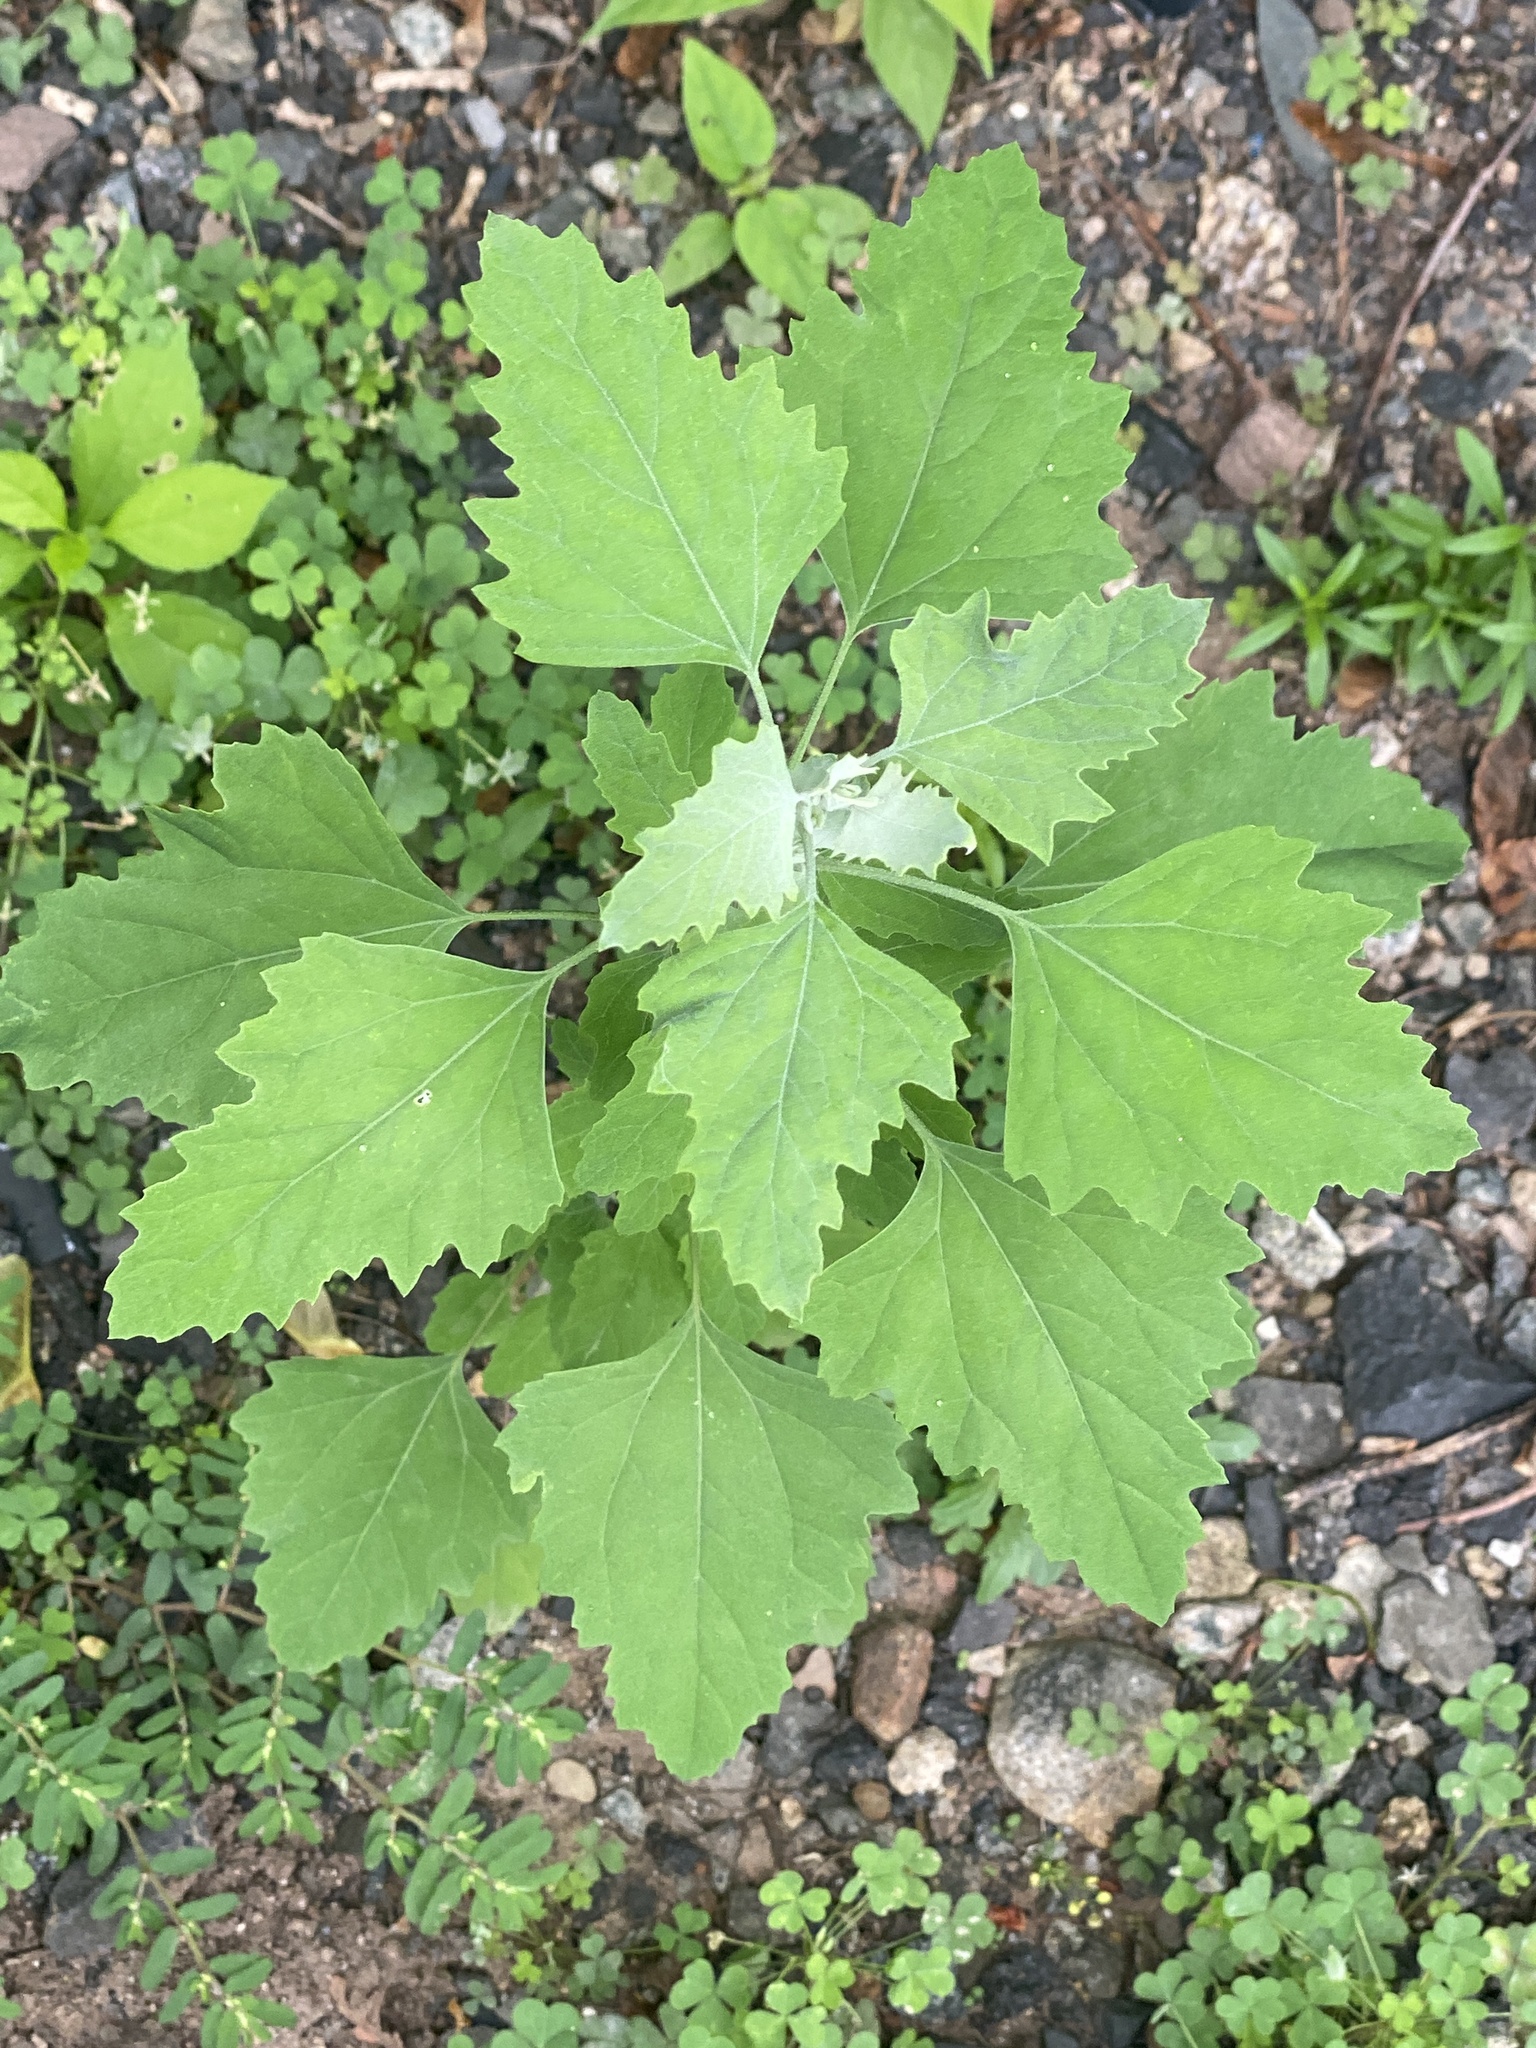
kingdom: Plantae
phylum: Tracheophyta
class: Magnoliopsida
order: Caryophyllales
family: Amaranthaceae
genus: Chenopodium
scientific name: Chenopodium album
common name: Fat-hen
